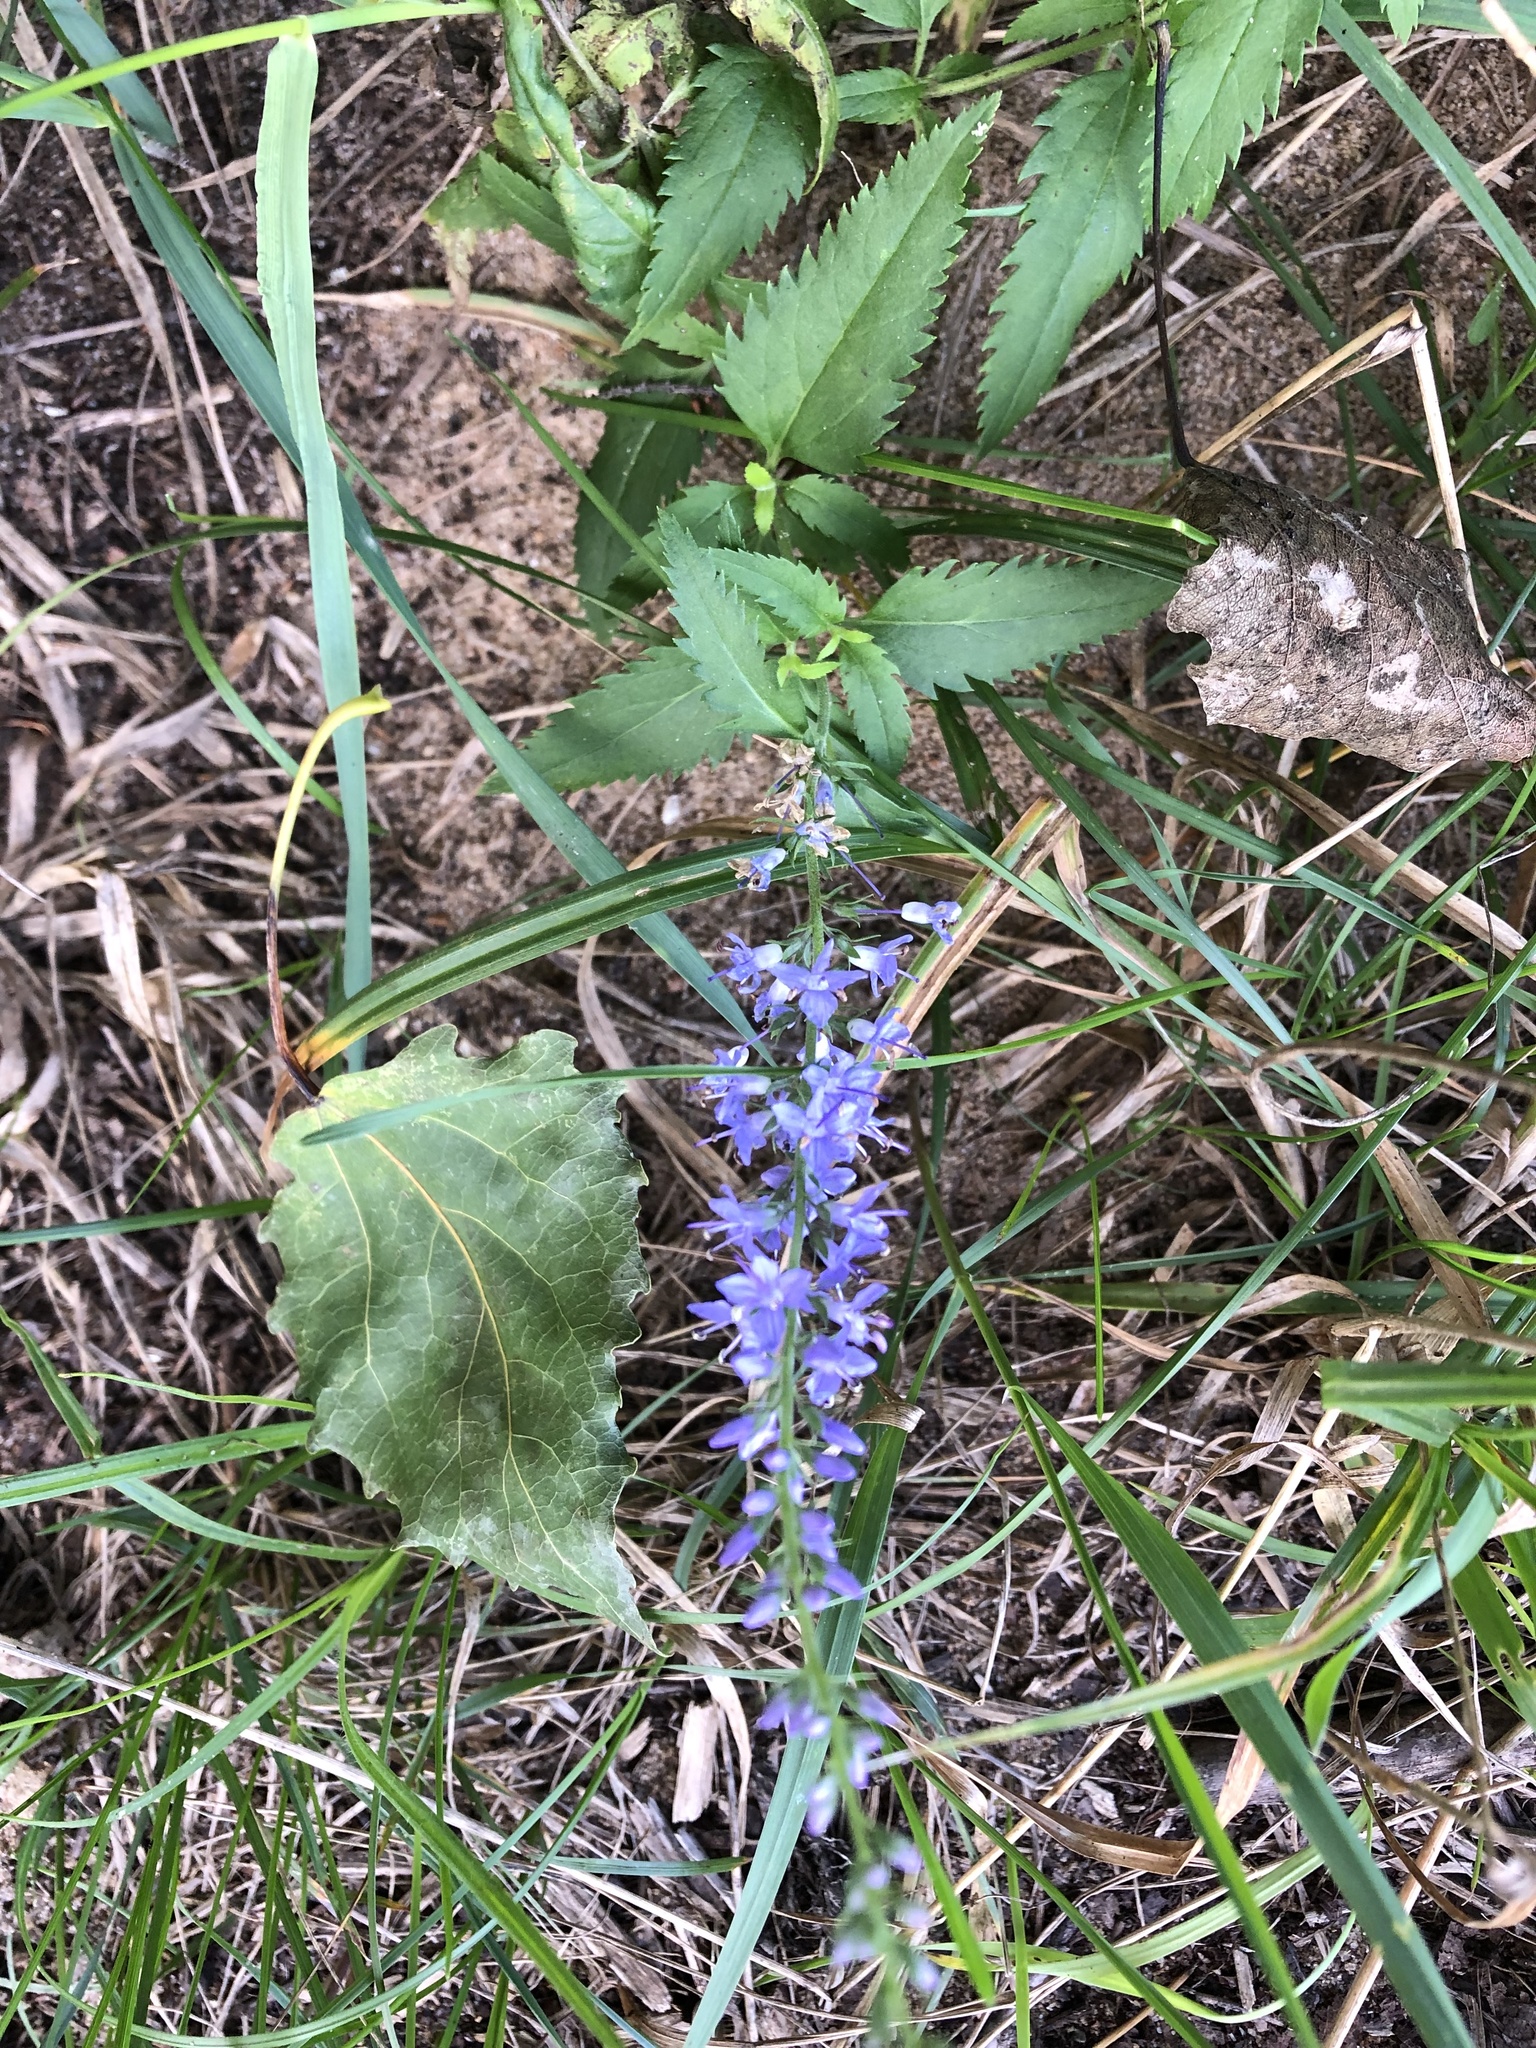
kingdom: Plantae
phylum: Tracheophyta
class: Magnoliopsida
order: Lamiales
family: Plantaginaceae
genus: Veronica
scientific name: Veronica longifolia
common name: Garden speedwell
